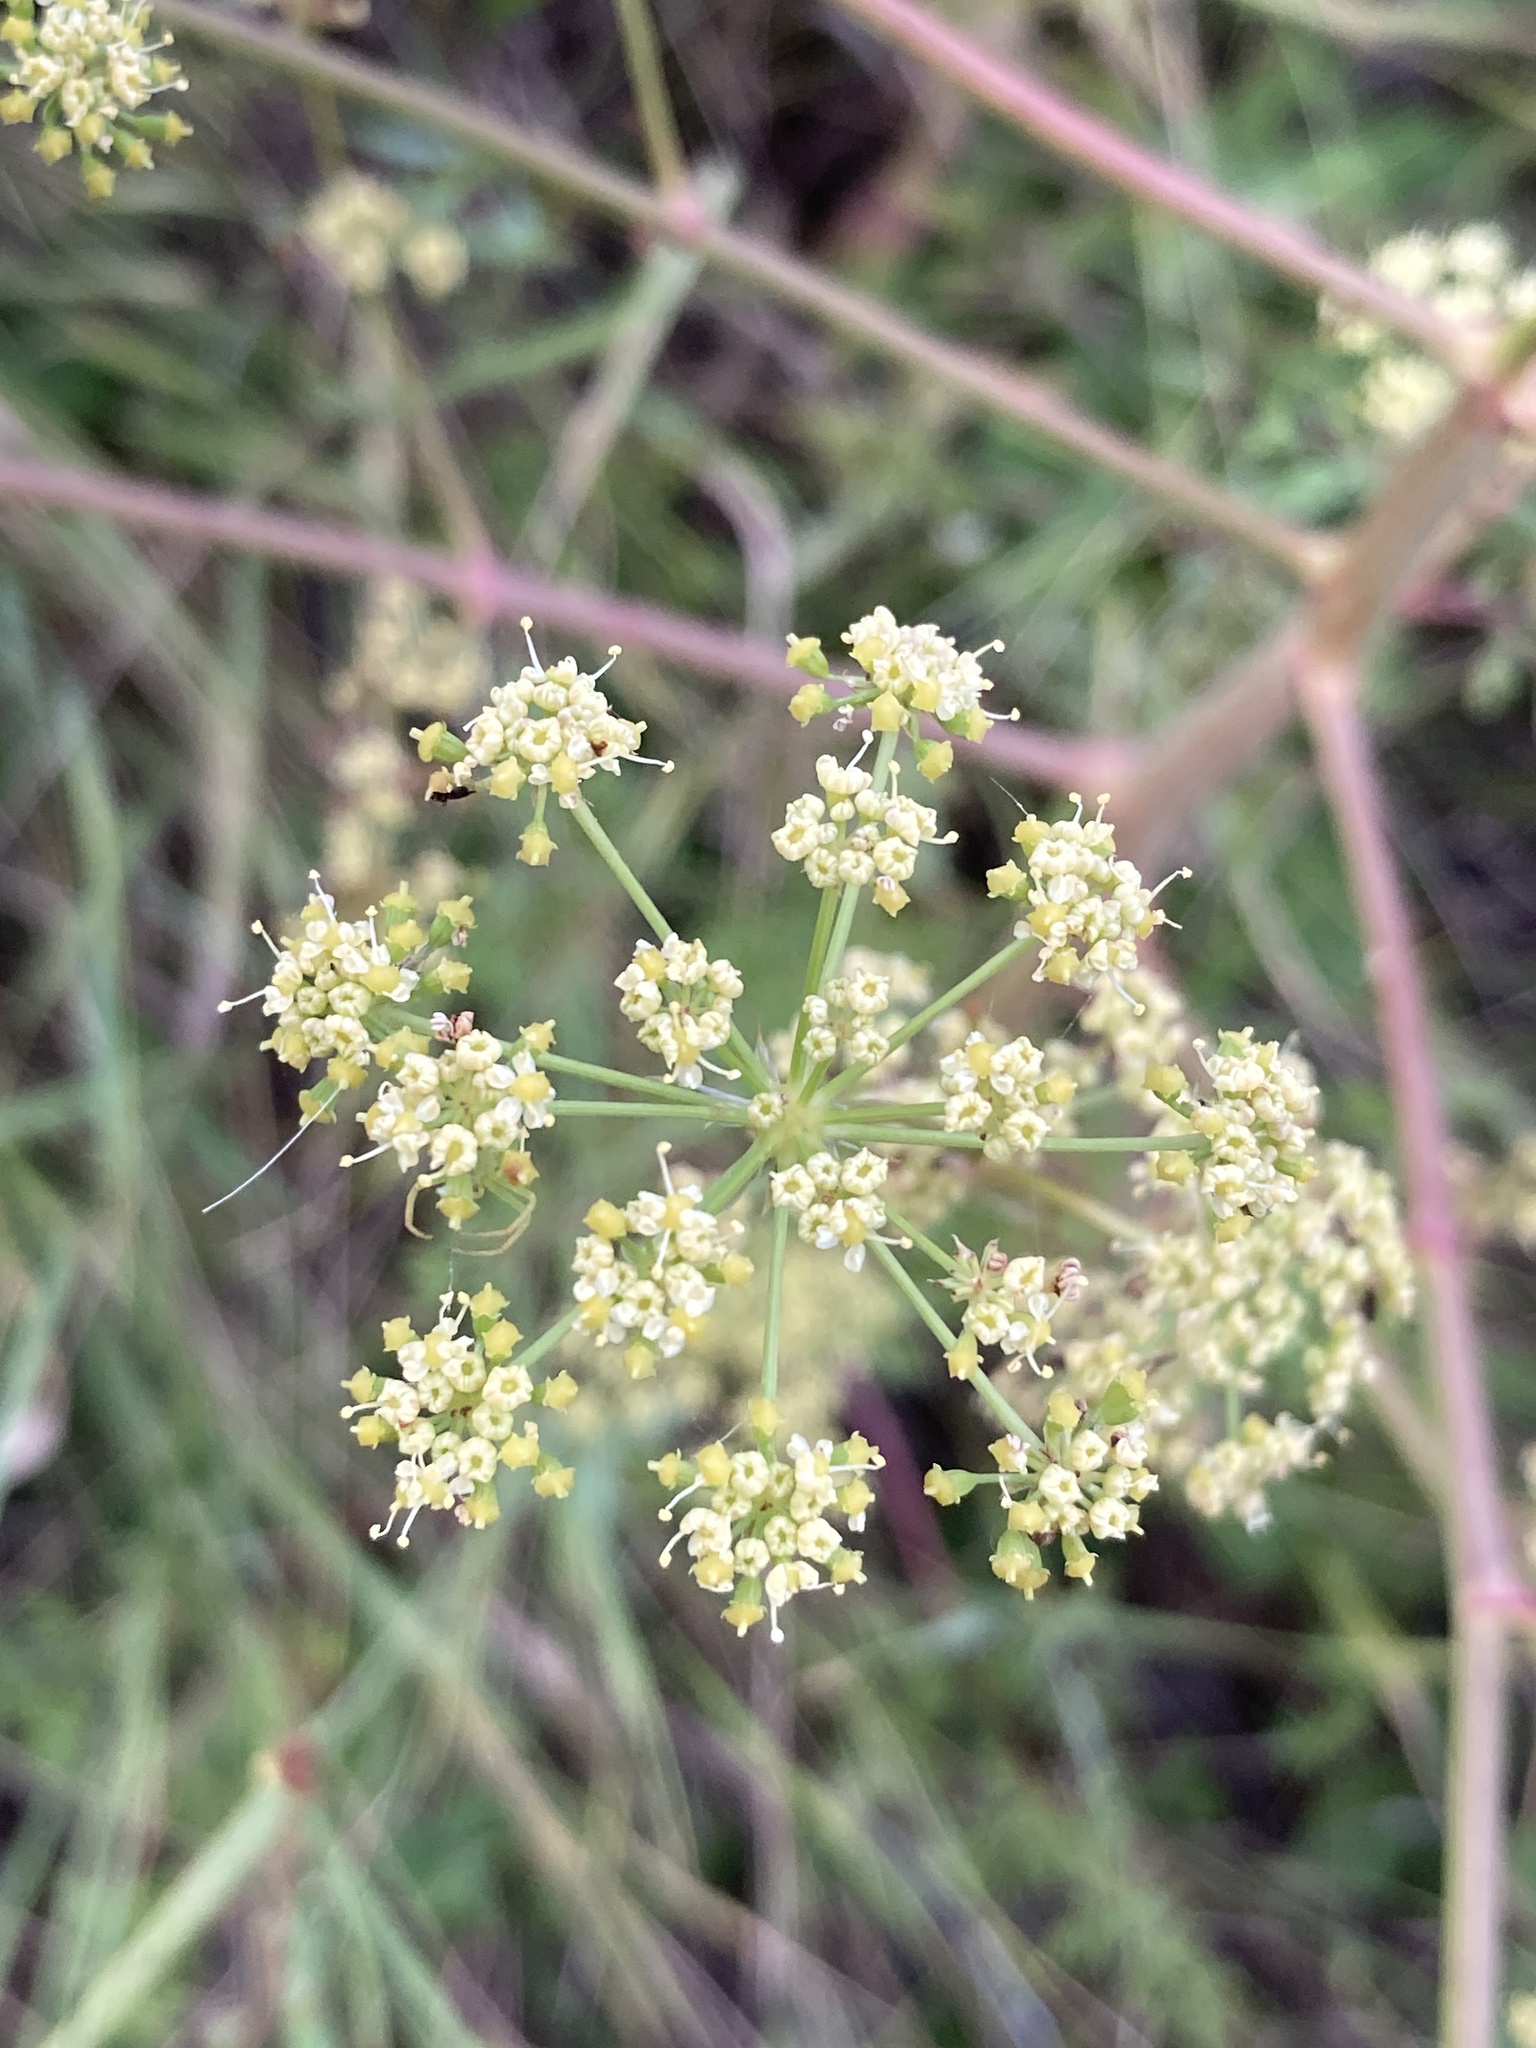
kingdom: Plantae
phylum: Tracheophyta
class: Magnoliopsida
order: Apiales
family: Apiaceae
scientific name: Apiaceae
